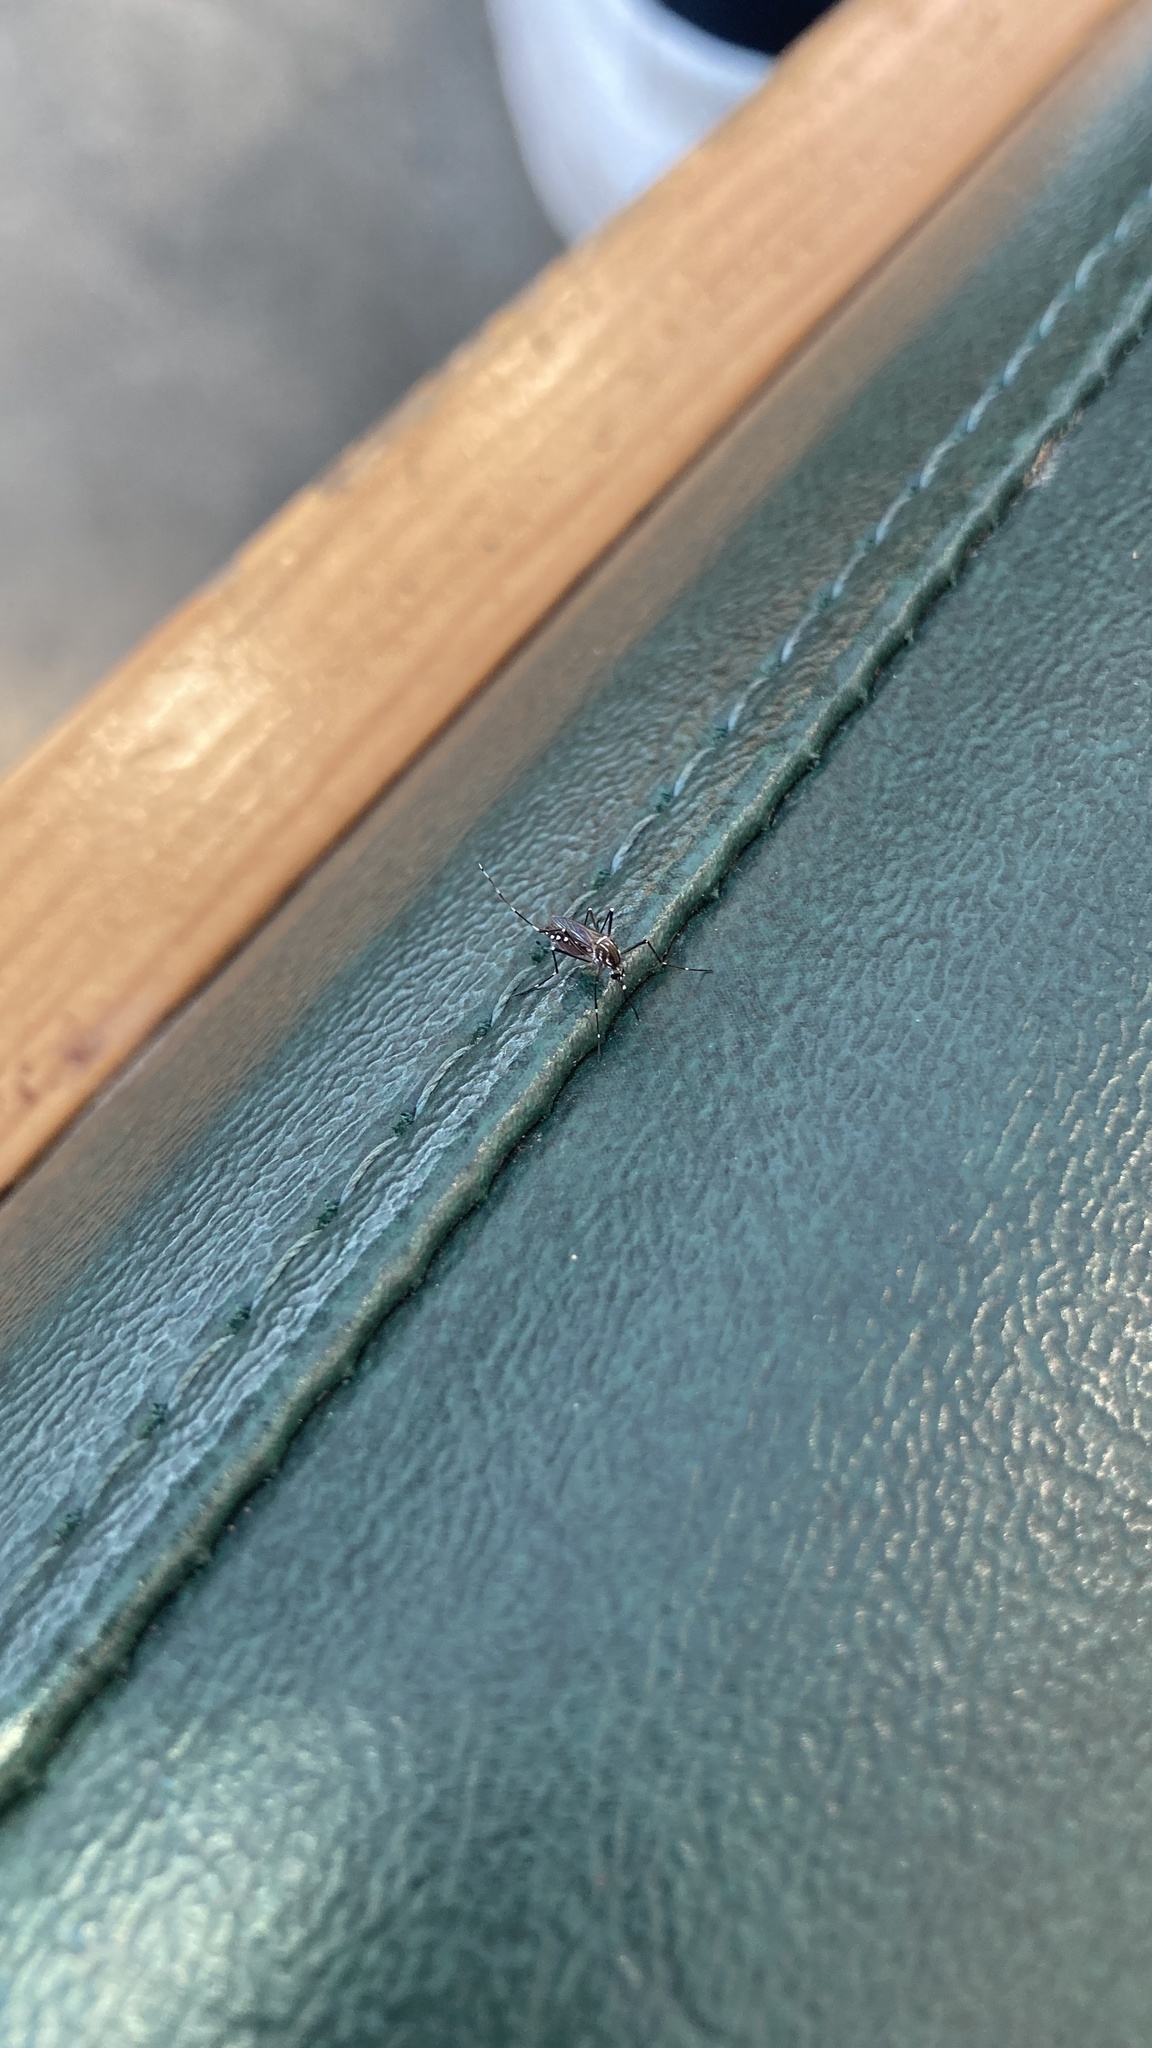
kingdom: Animalia
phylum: Arthropoda
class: Insecta
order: Diptera
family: Culicidae
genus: Aedes
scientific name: Aedes aegypti
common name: Yellow fever mosquito
